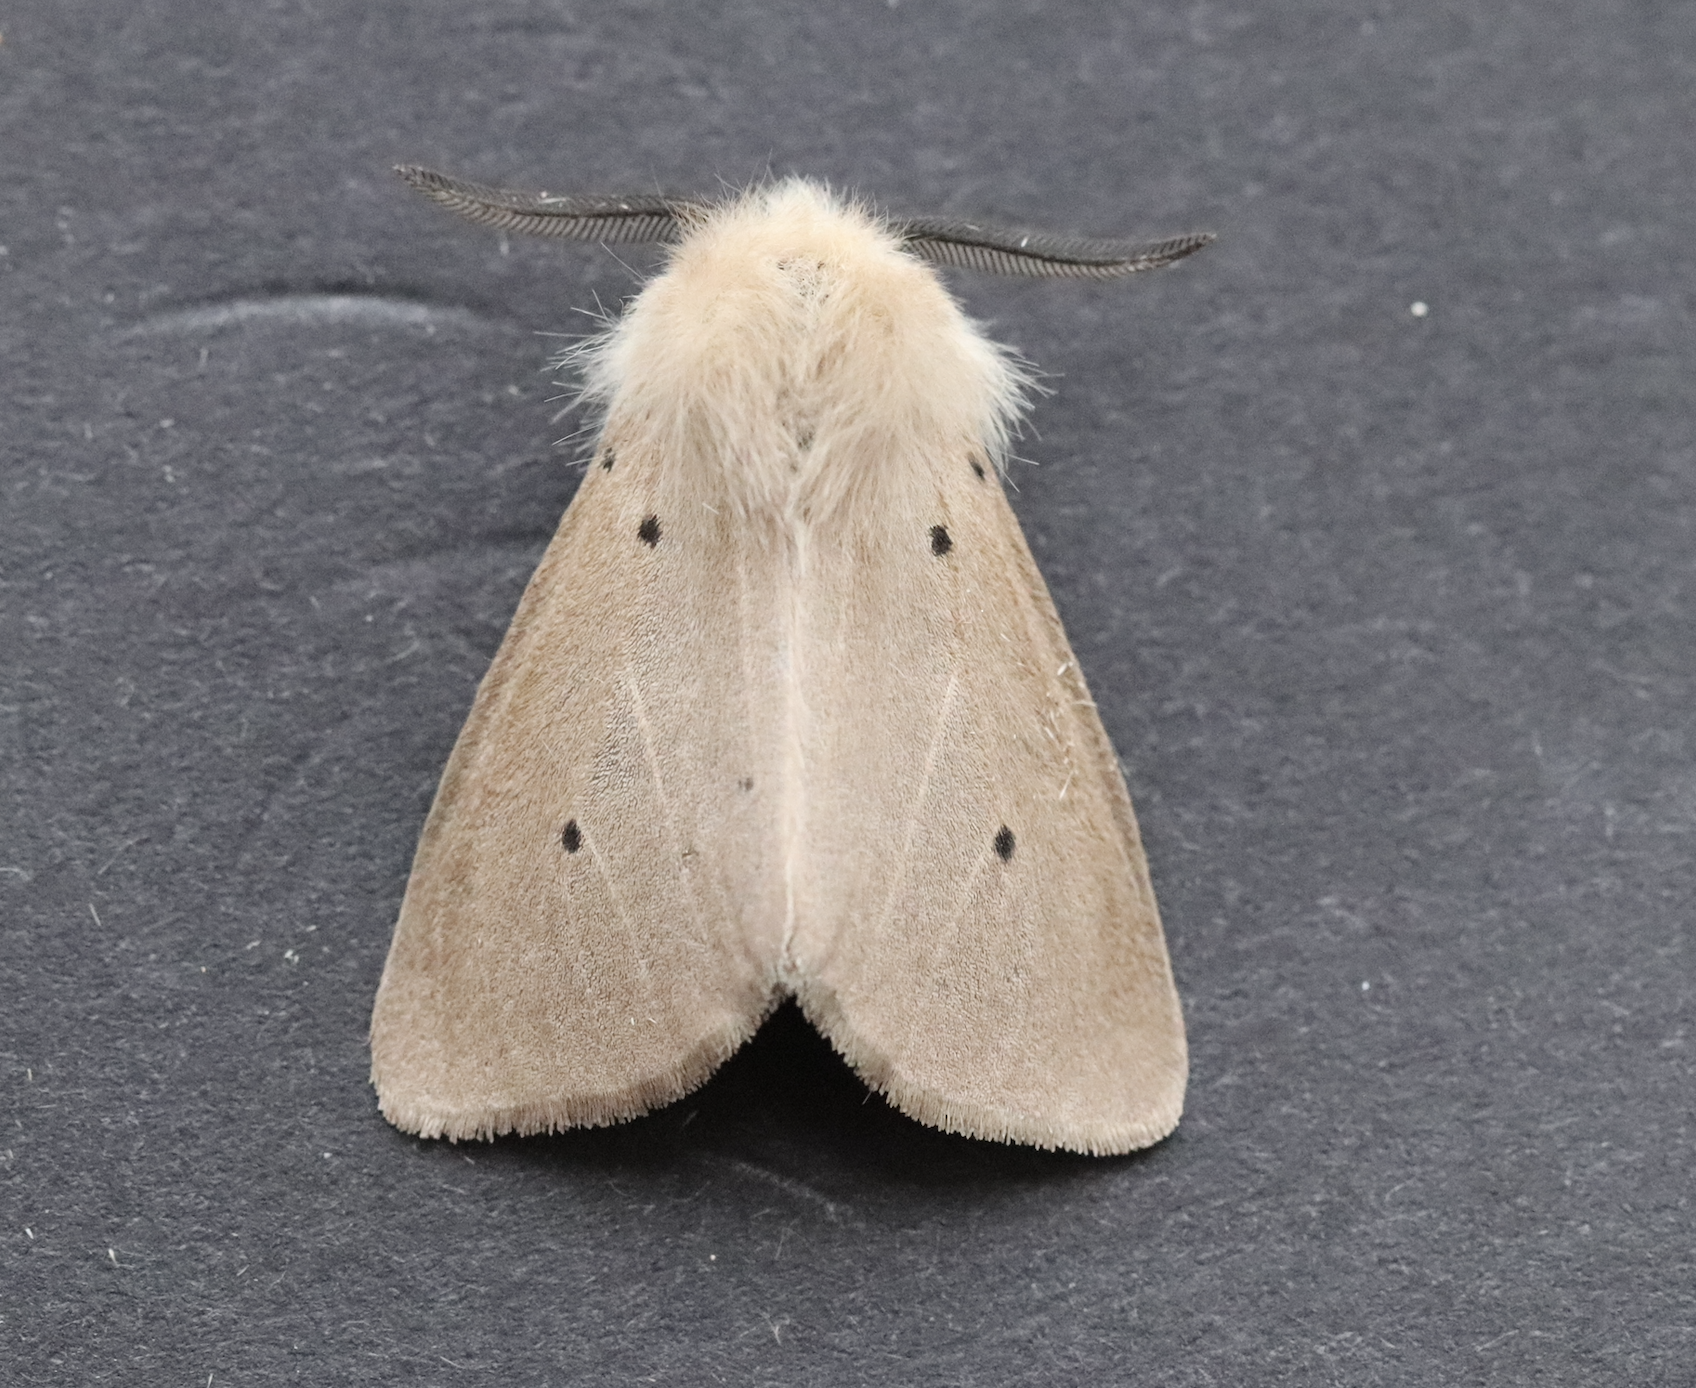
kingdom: Animalia
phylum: Arthropoda
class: Insecta
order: Lepidoptera
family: Erebidae
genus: Diaphora
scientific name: Diaphora mendica
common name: Muslin moth
